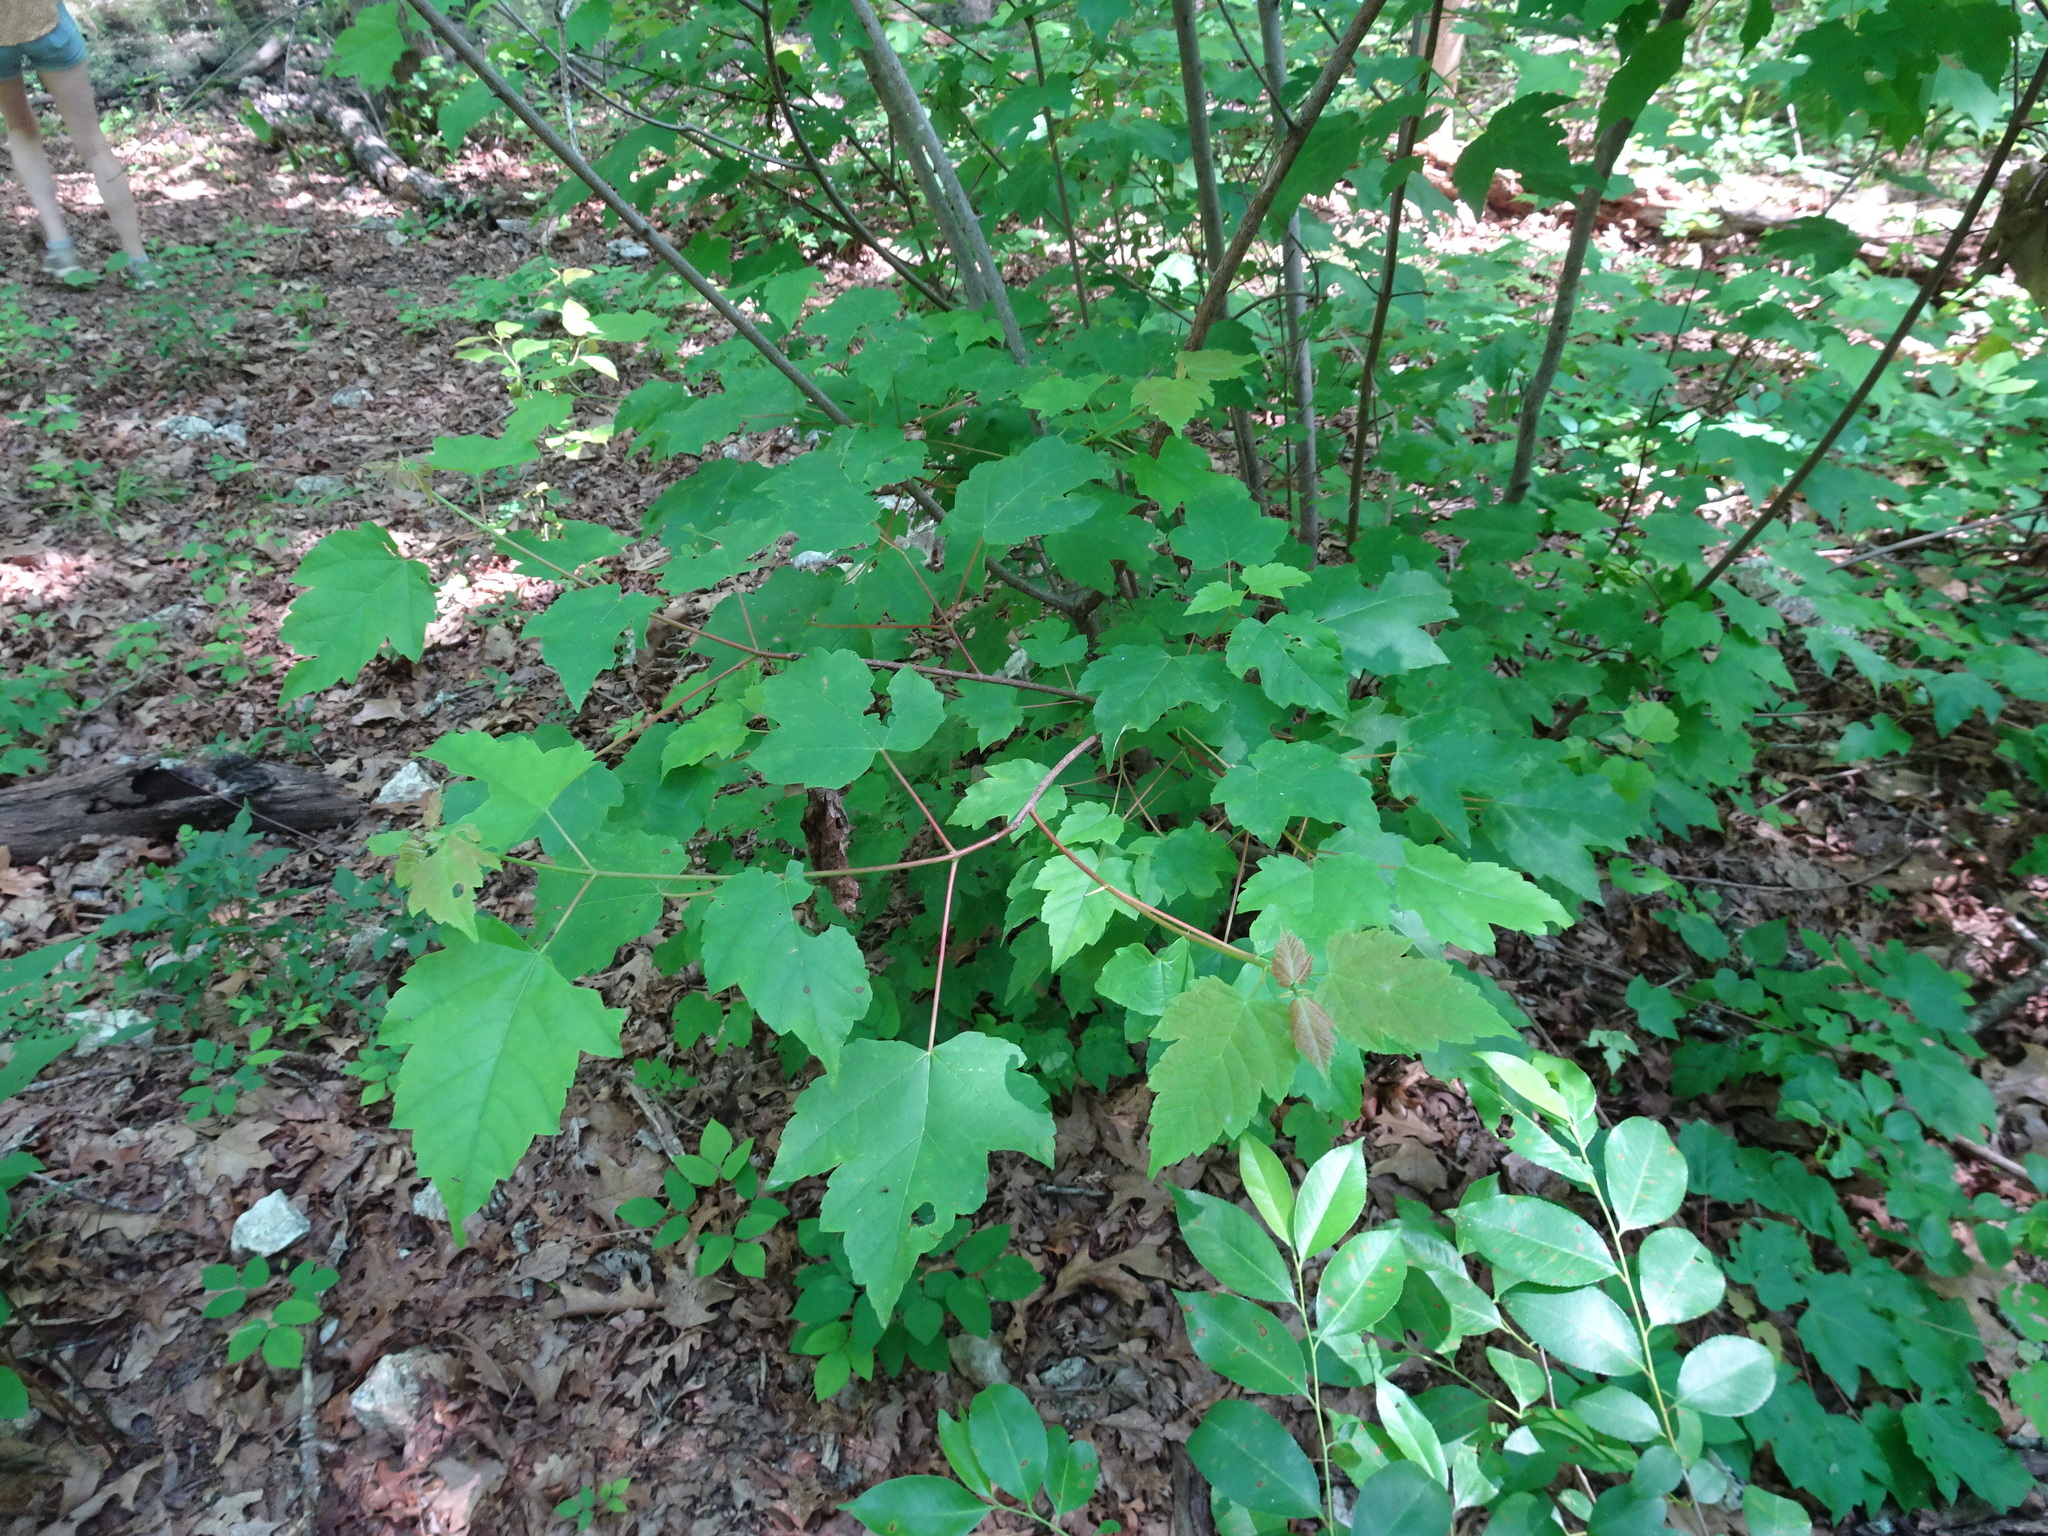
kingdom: Plantae
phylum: Tracheophyta
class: Magnoliopsida
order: Sapindales
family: Sapindaceae
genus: Acer
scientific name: Acer rubrum
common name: Red maple
